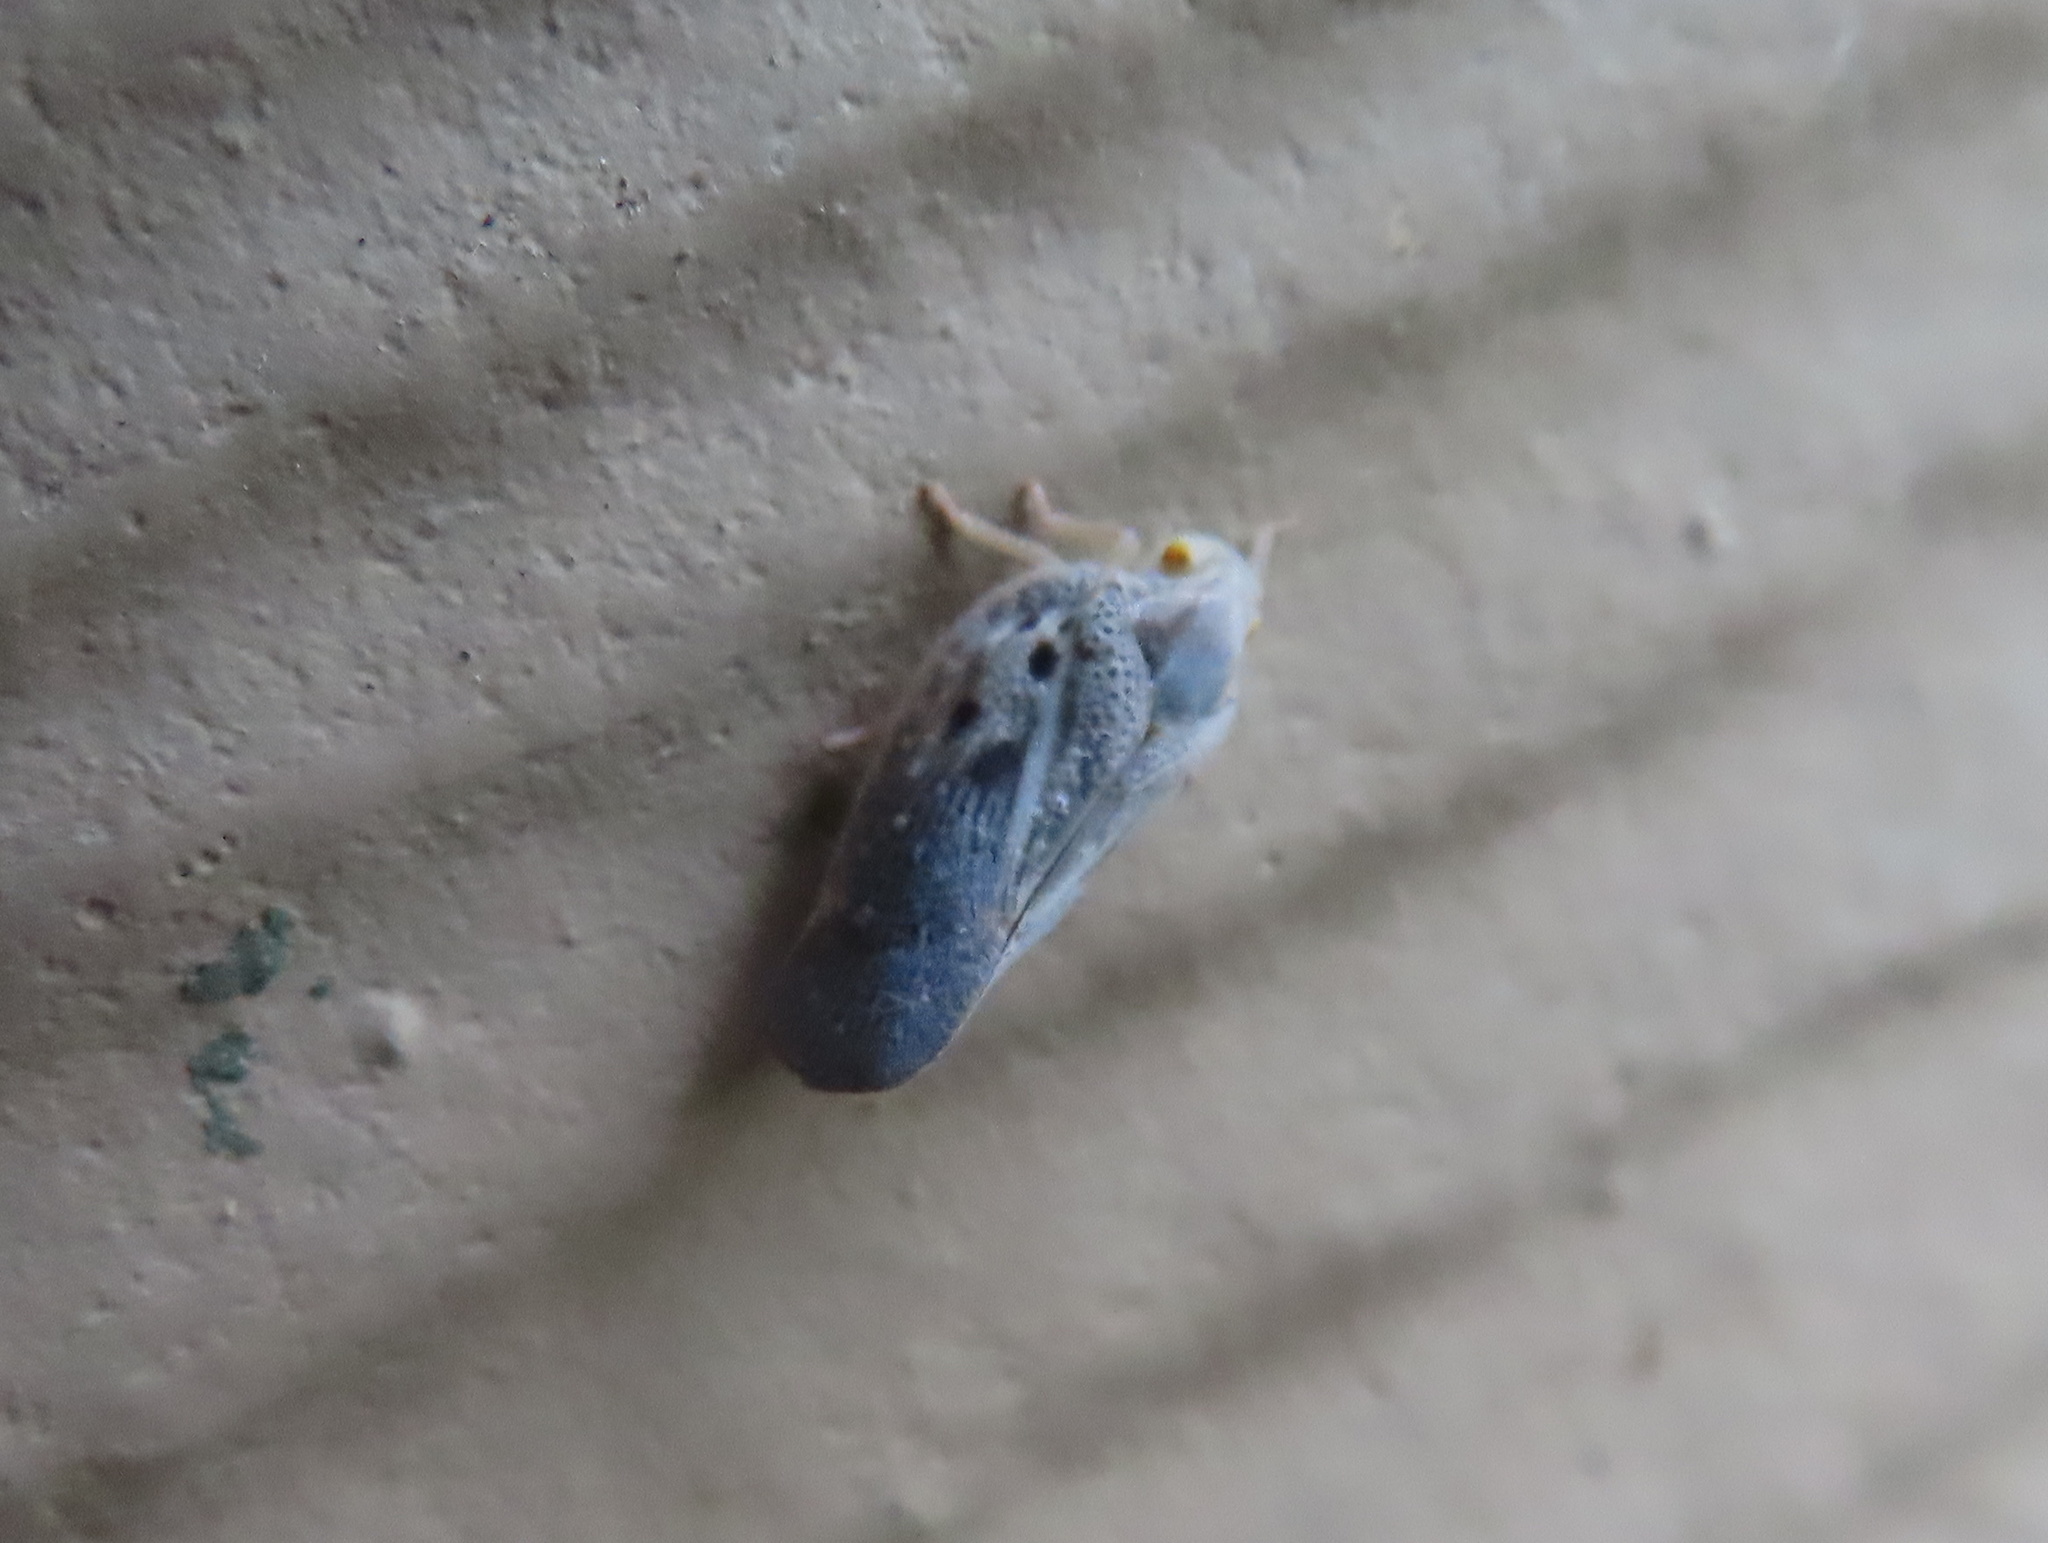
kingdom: Animalia
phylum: Arthropoda
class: Insecta
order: Hemiptera
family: Flatidae
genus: Metcalfa
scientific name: Metcalfa pruinosa
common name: Citrus flatid planthopper
